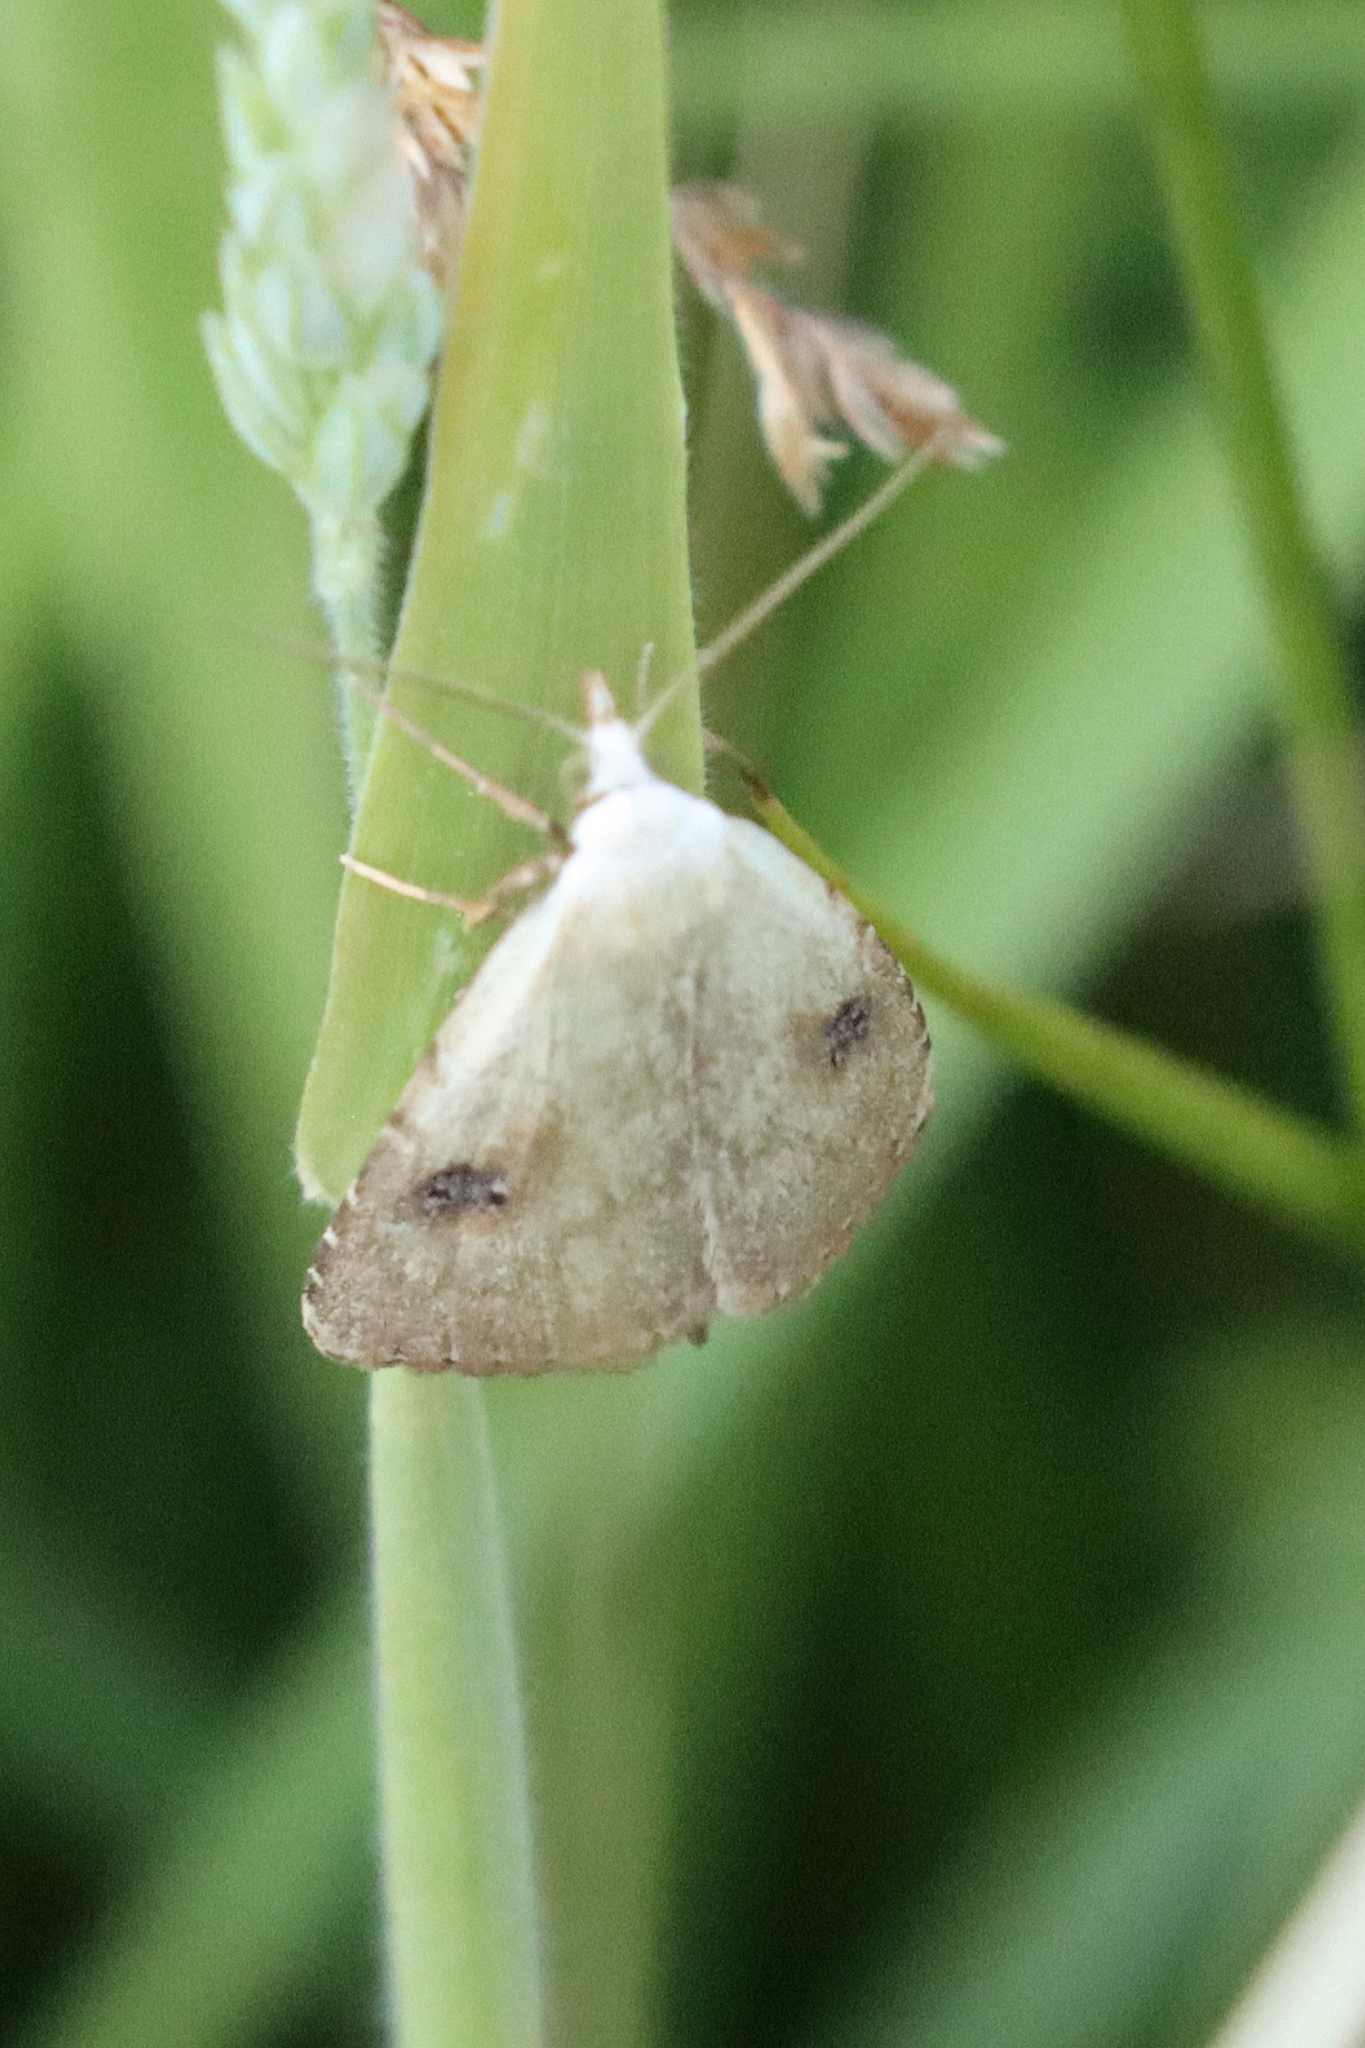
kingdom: Animalia
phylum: Arthropoda
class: Insecta
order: Lepidoptera
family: Erebidae
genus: Rivula
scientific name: Rivula sericealis
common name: Straw dot
